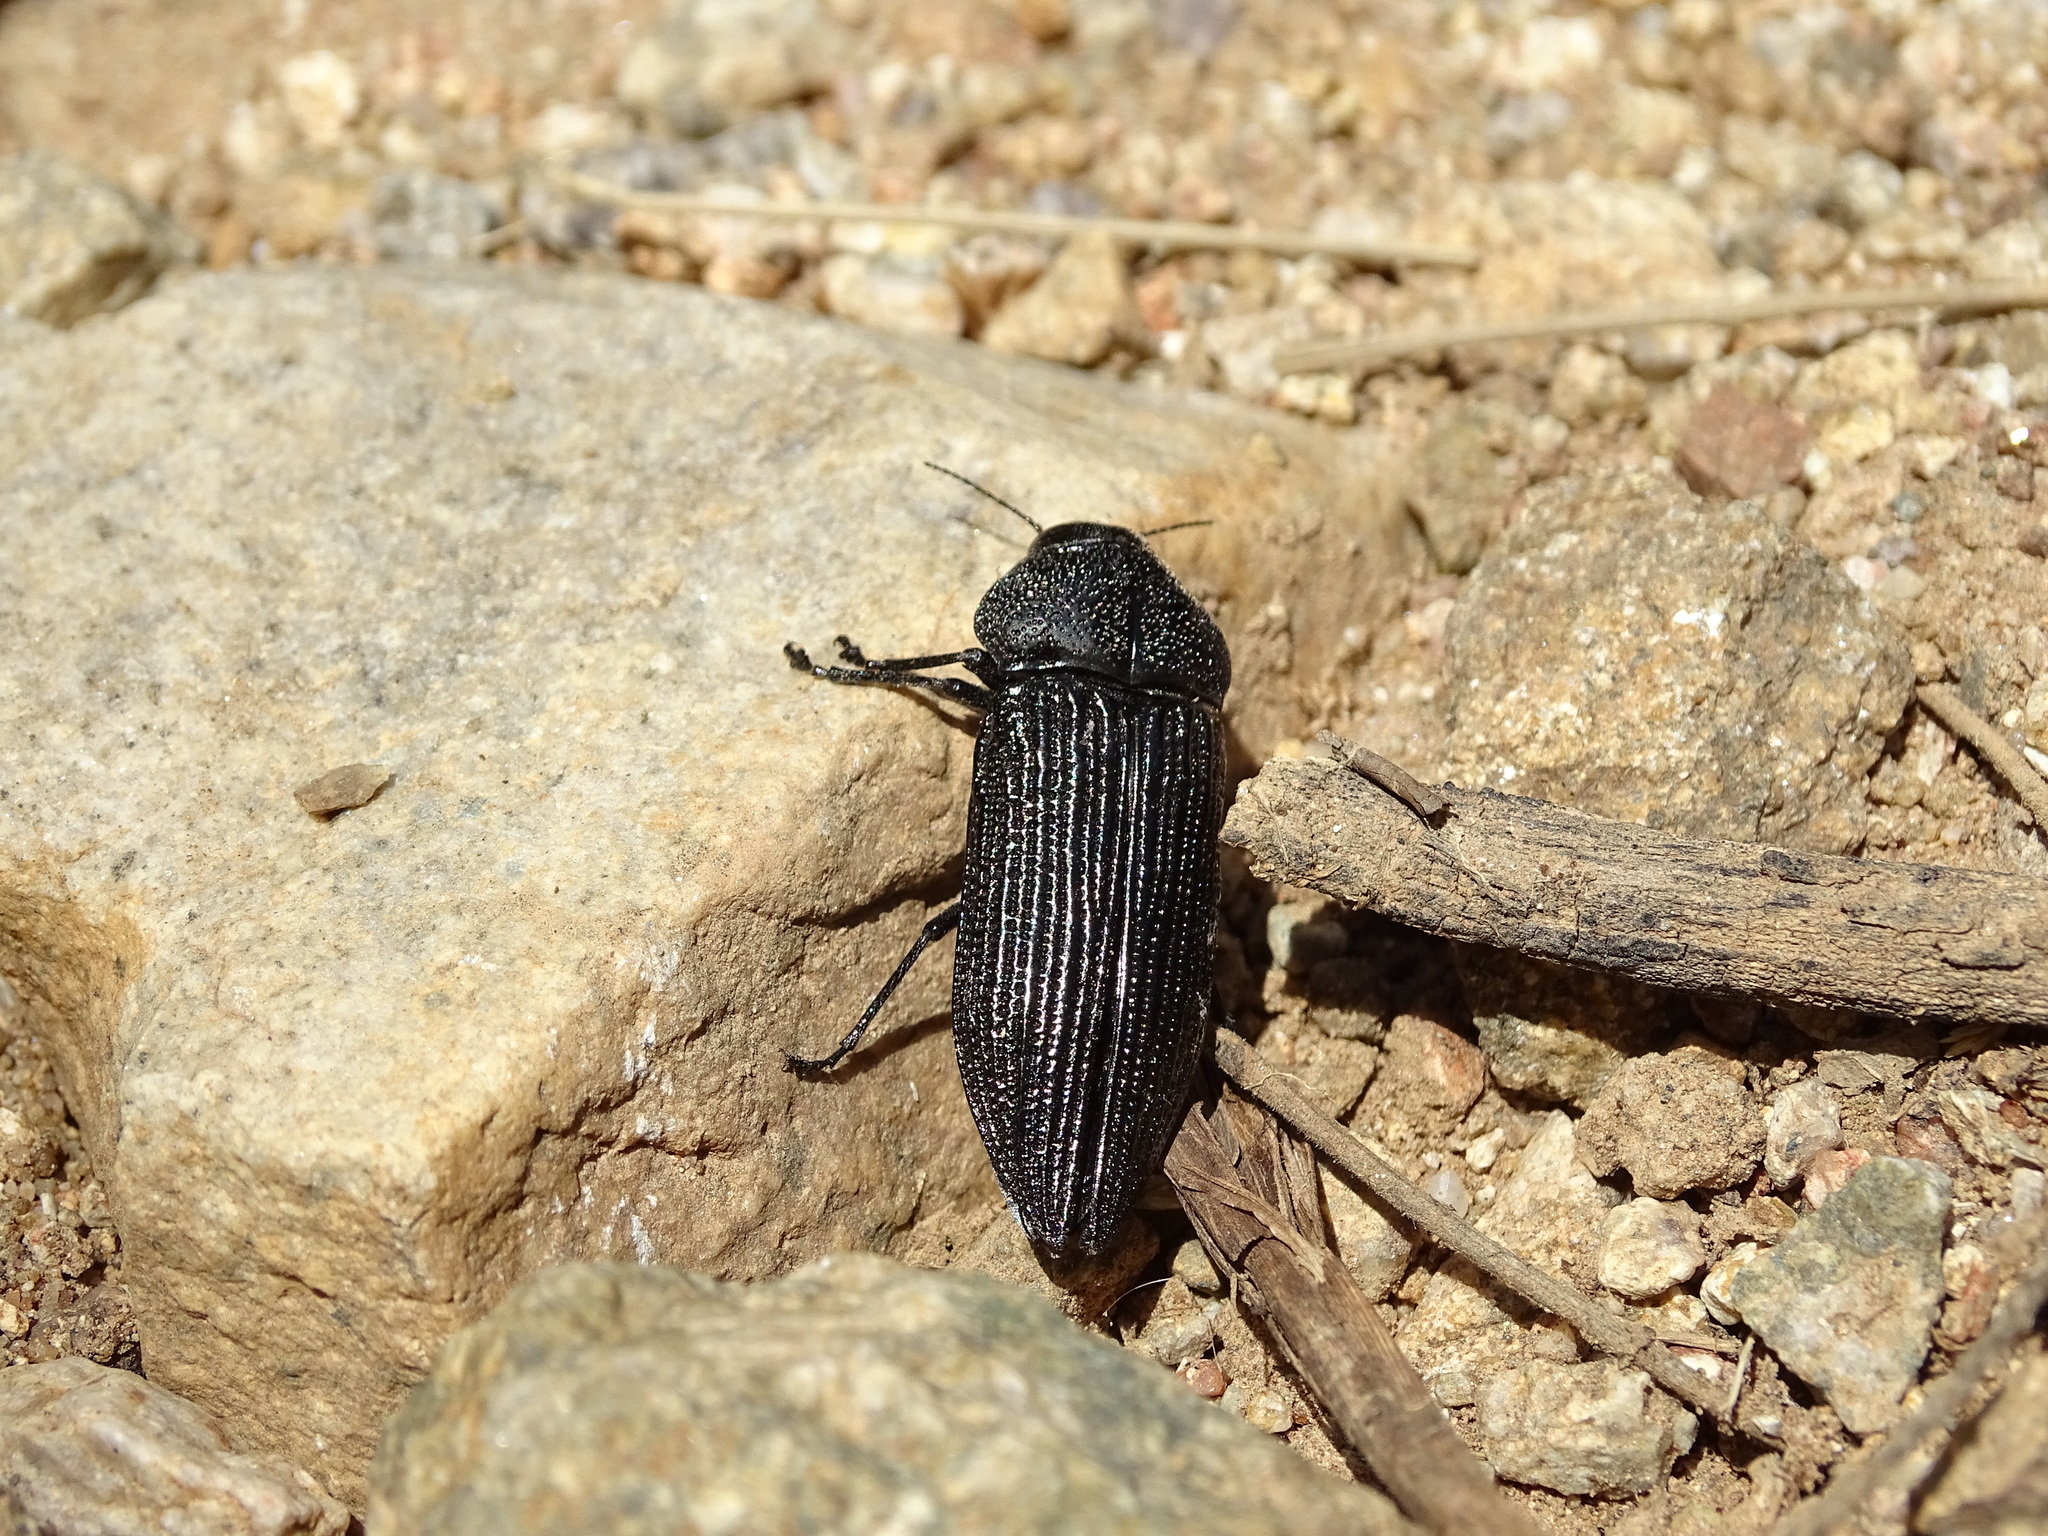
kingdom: Animalia
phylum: Arthropoda
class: Insecta
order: Coleoptera
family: Buprestidae
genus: Polycesta
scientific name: Polycesta aruensis
